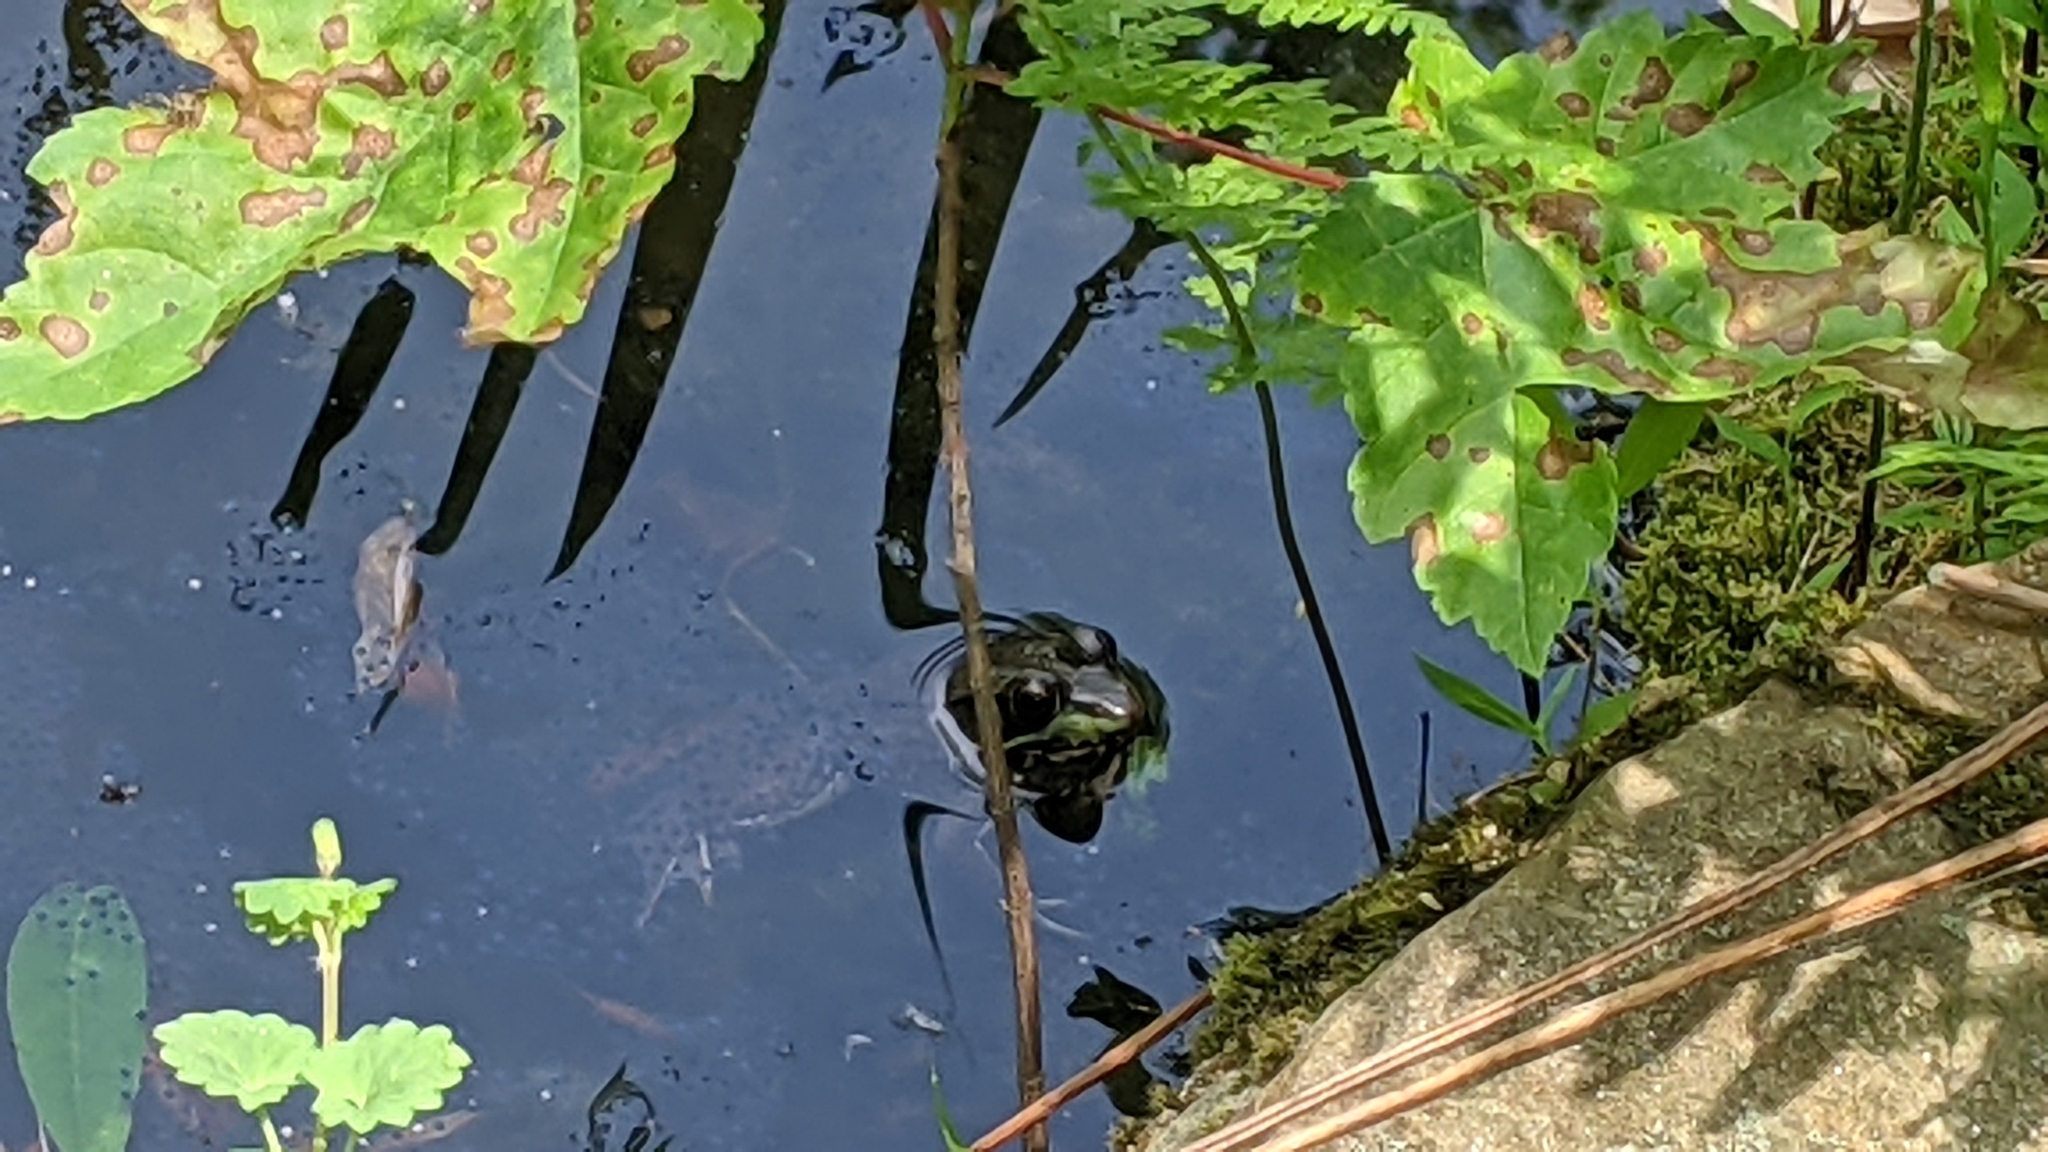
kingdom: Animalia
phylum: Chordata
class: Amphibia
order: Anura
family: Ranidae
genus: Lithobates
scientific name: Lithobates clamitans
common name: Green frog
